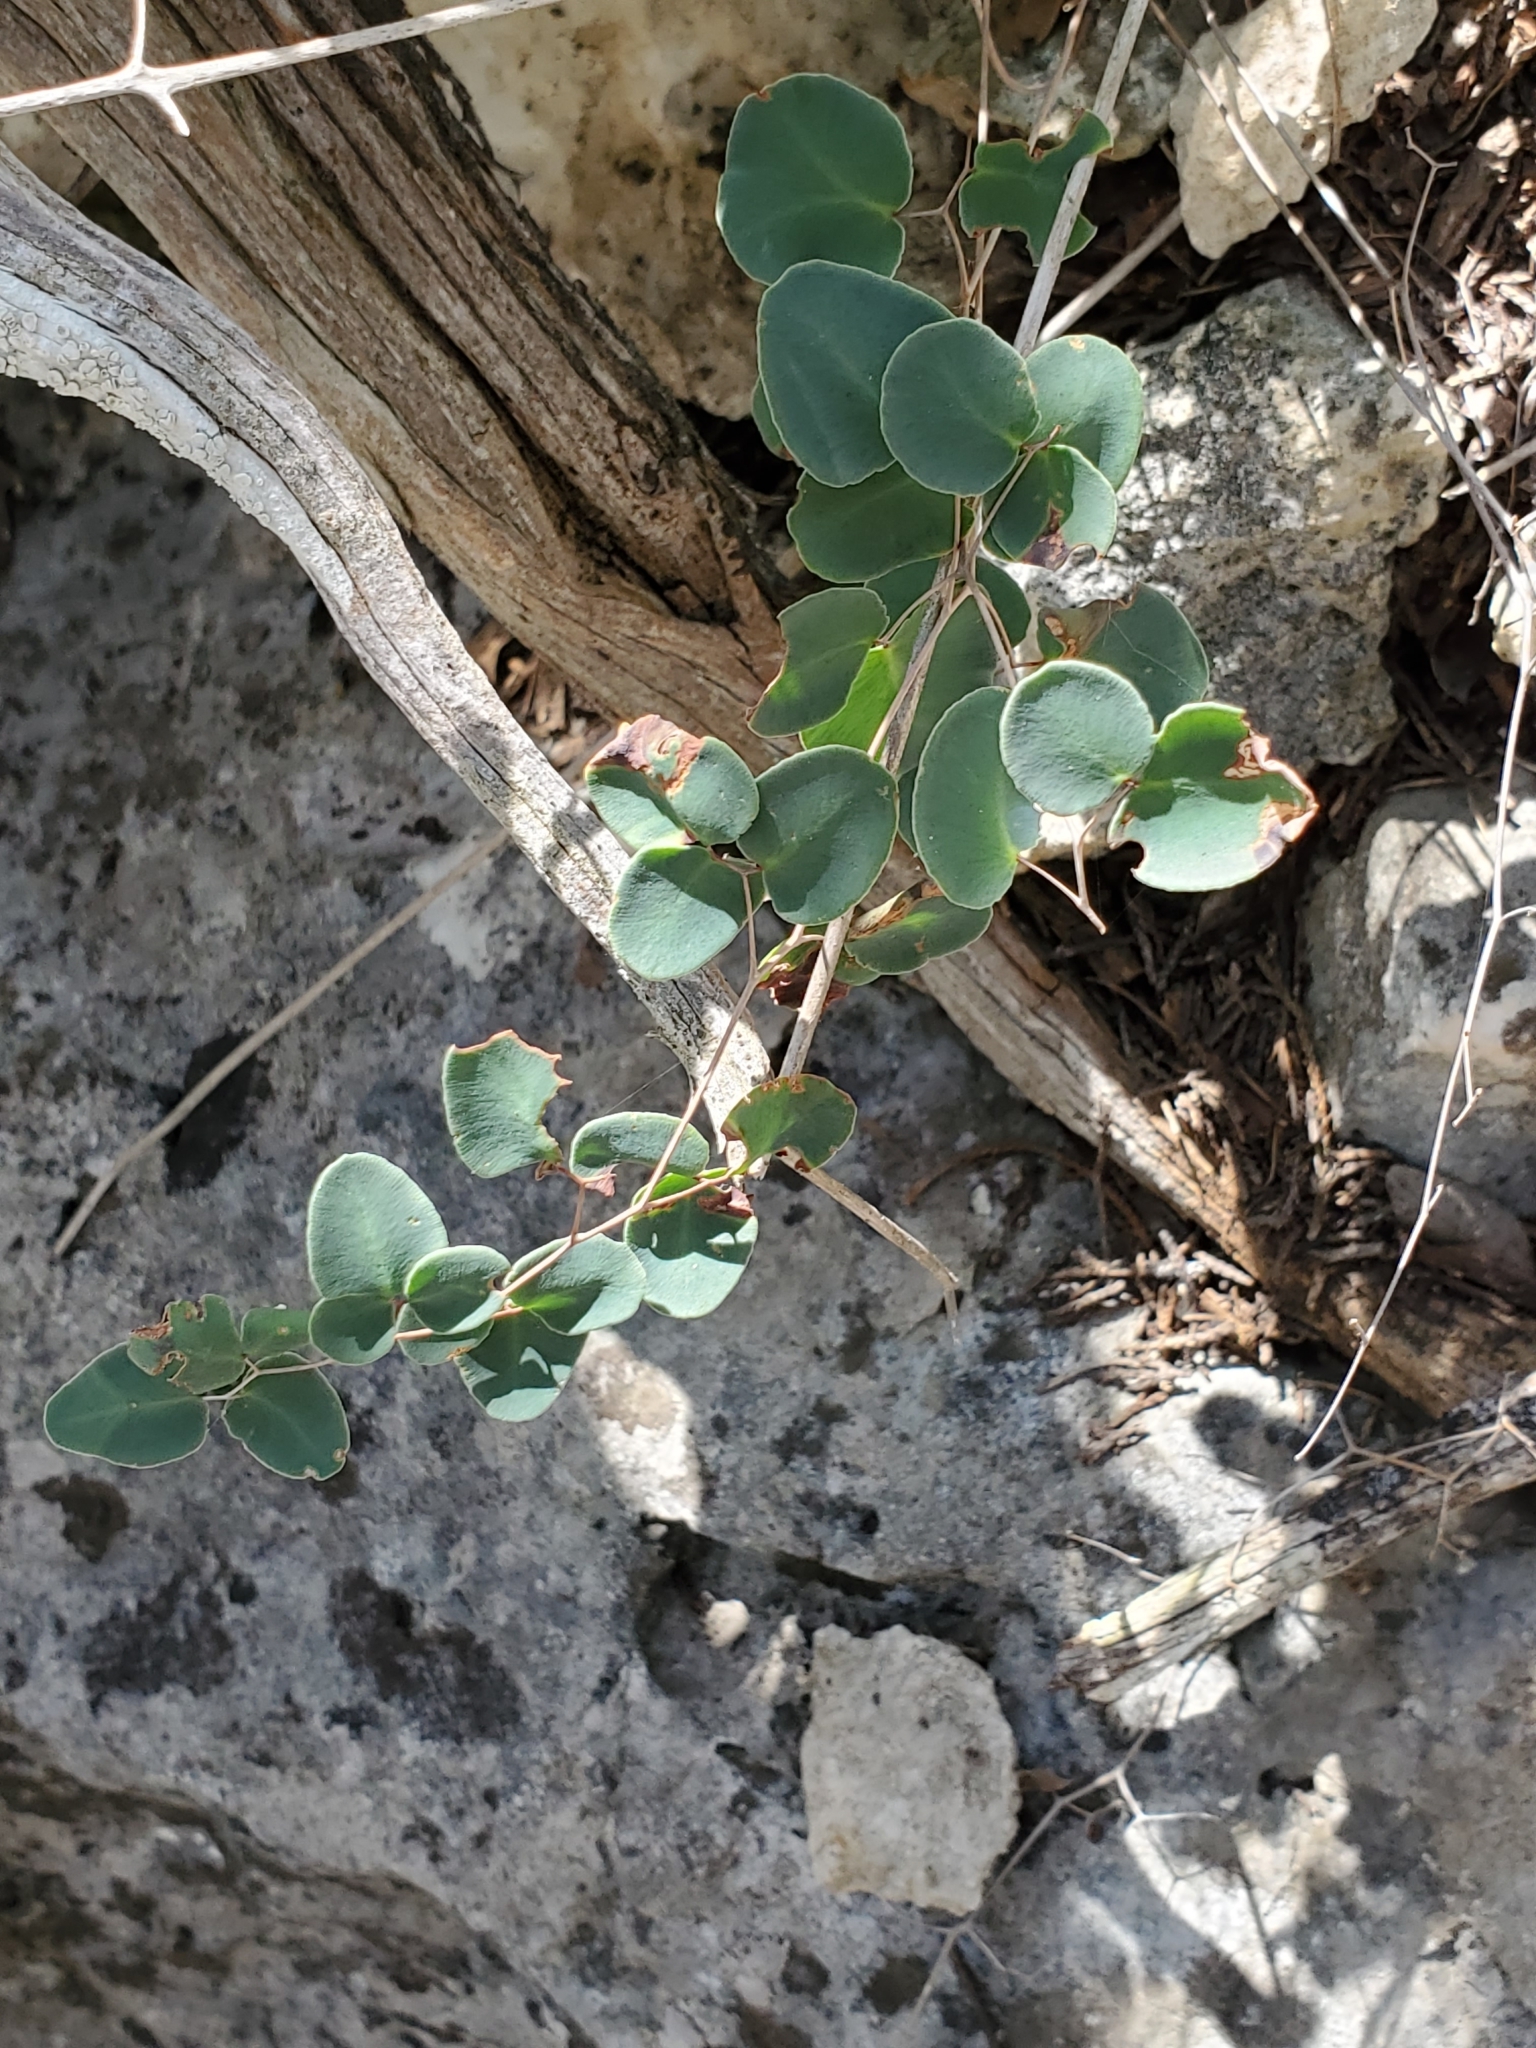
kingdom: Plantae
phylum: Tracheophyta
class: Polypodiopsida
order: Polypodiales
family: Pteridaceae
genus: Pellaea
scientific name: Pellaea ovata
